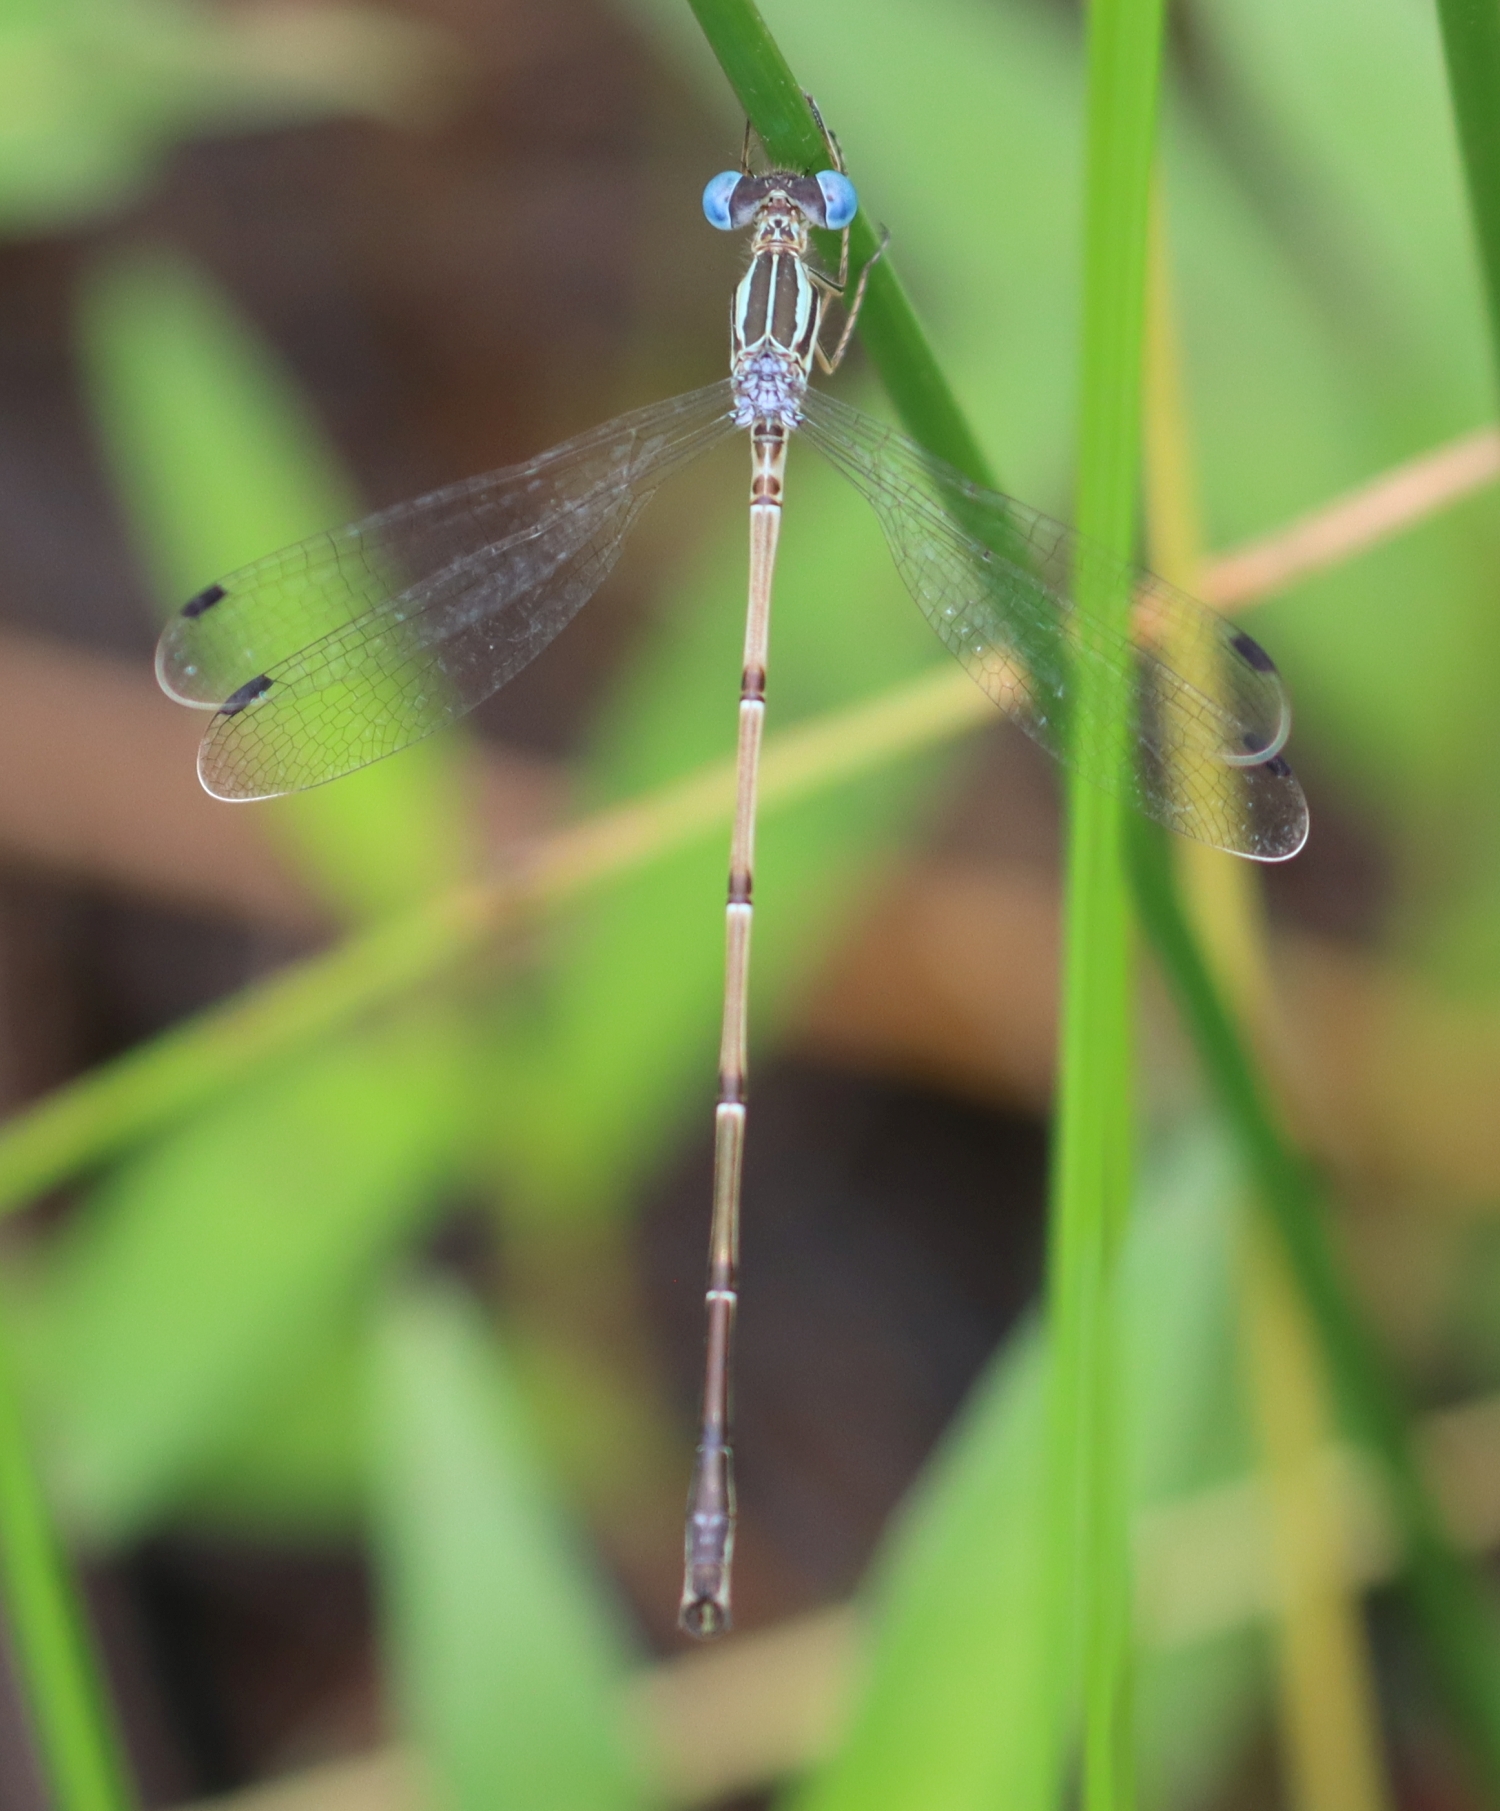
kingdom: Animalia
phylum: Arthropoda
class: Insecta
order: Odonata
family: Lestidae
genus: Lestes
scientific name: Lestes rectangularis
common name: Slender spreadwing
